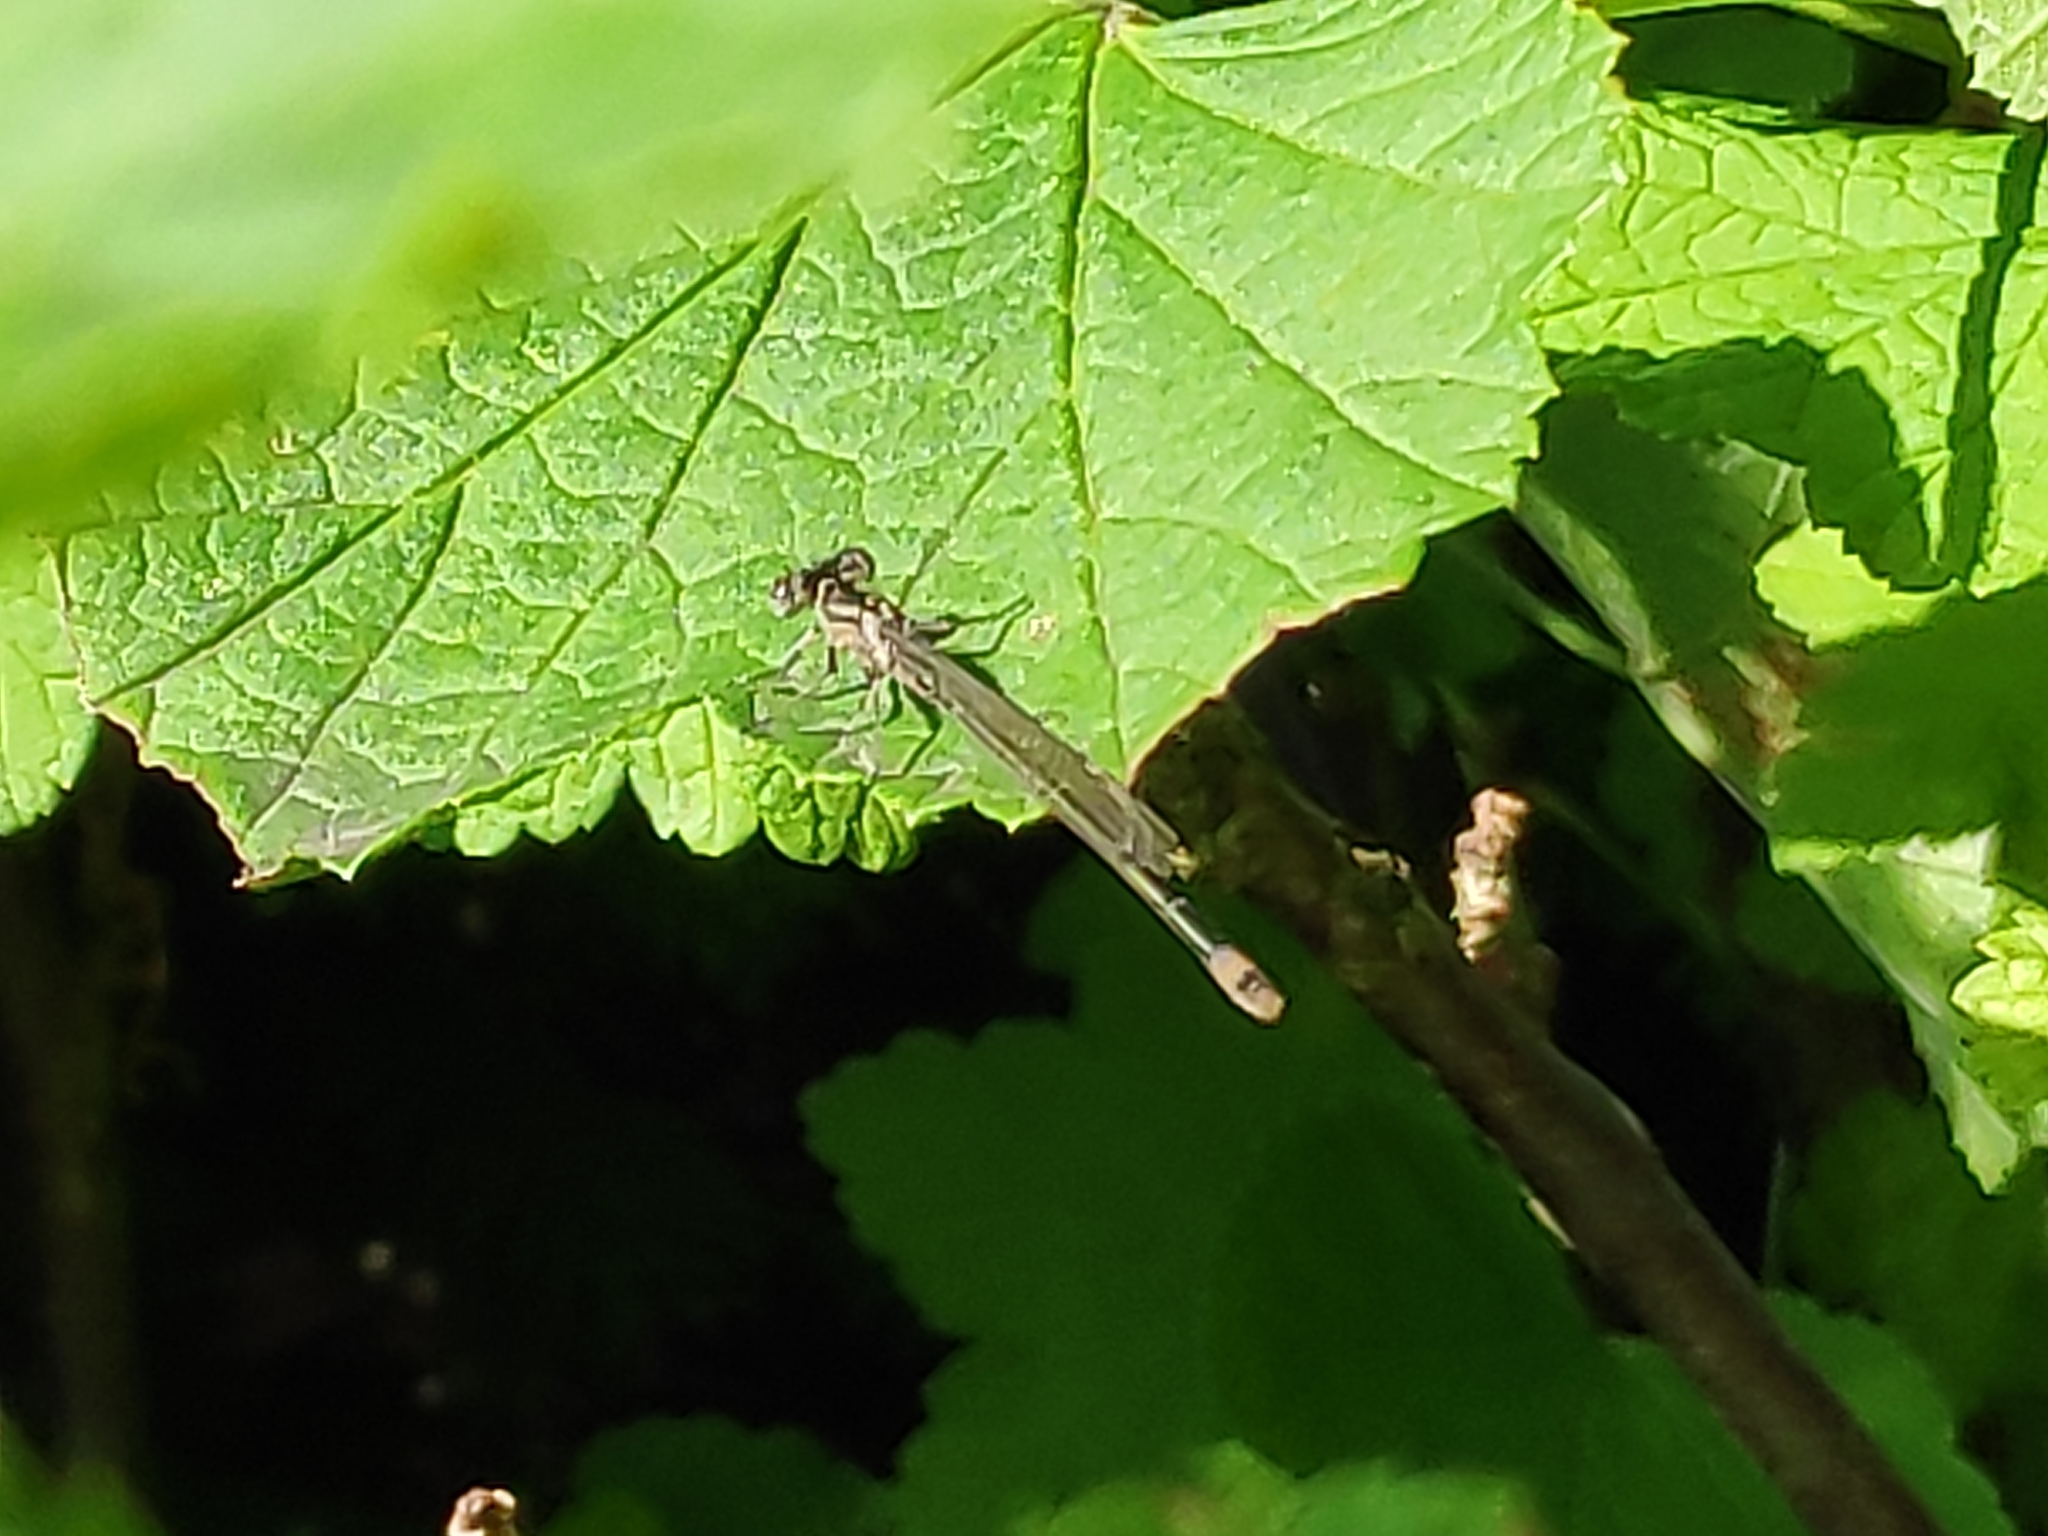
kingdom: Animalia
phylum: Arthropoda
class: Insecta
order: Odonata
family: Coenagrionidae
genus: Ischnura
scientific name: Ischnura elegans
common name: Blue-tailed damselfly
